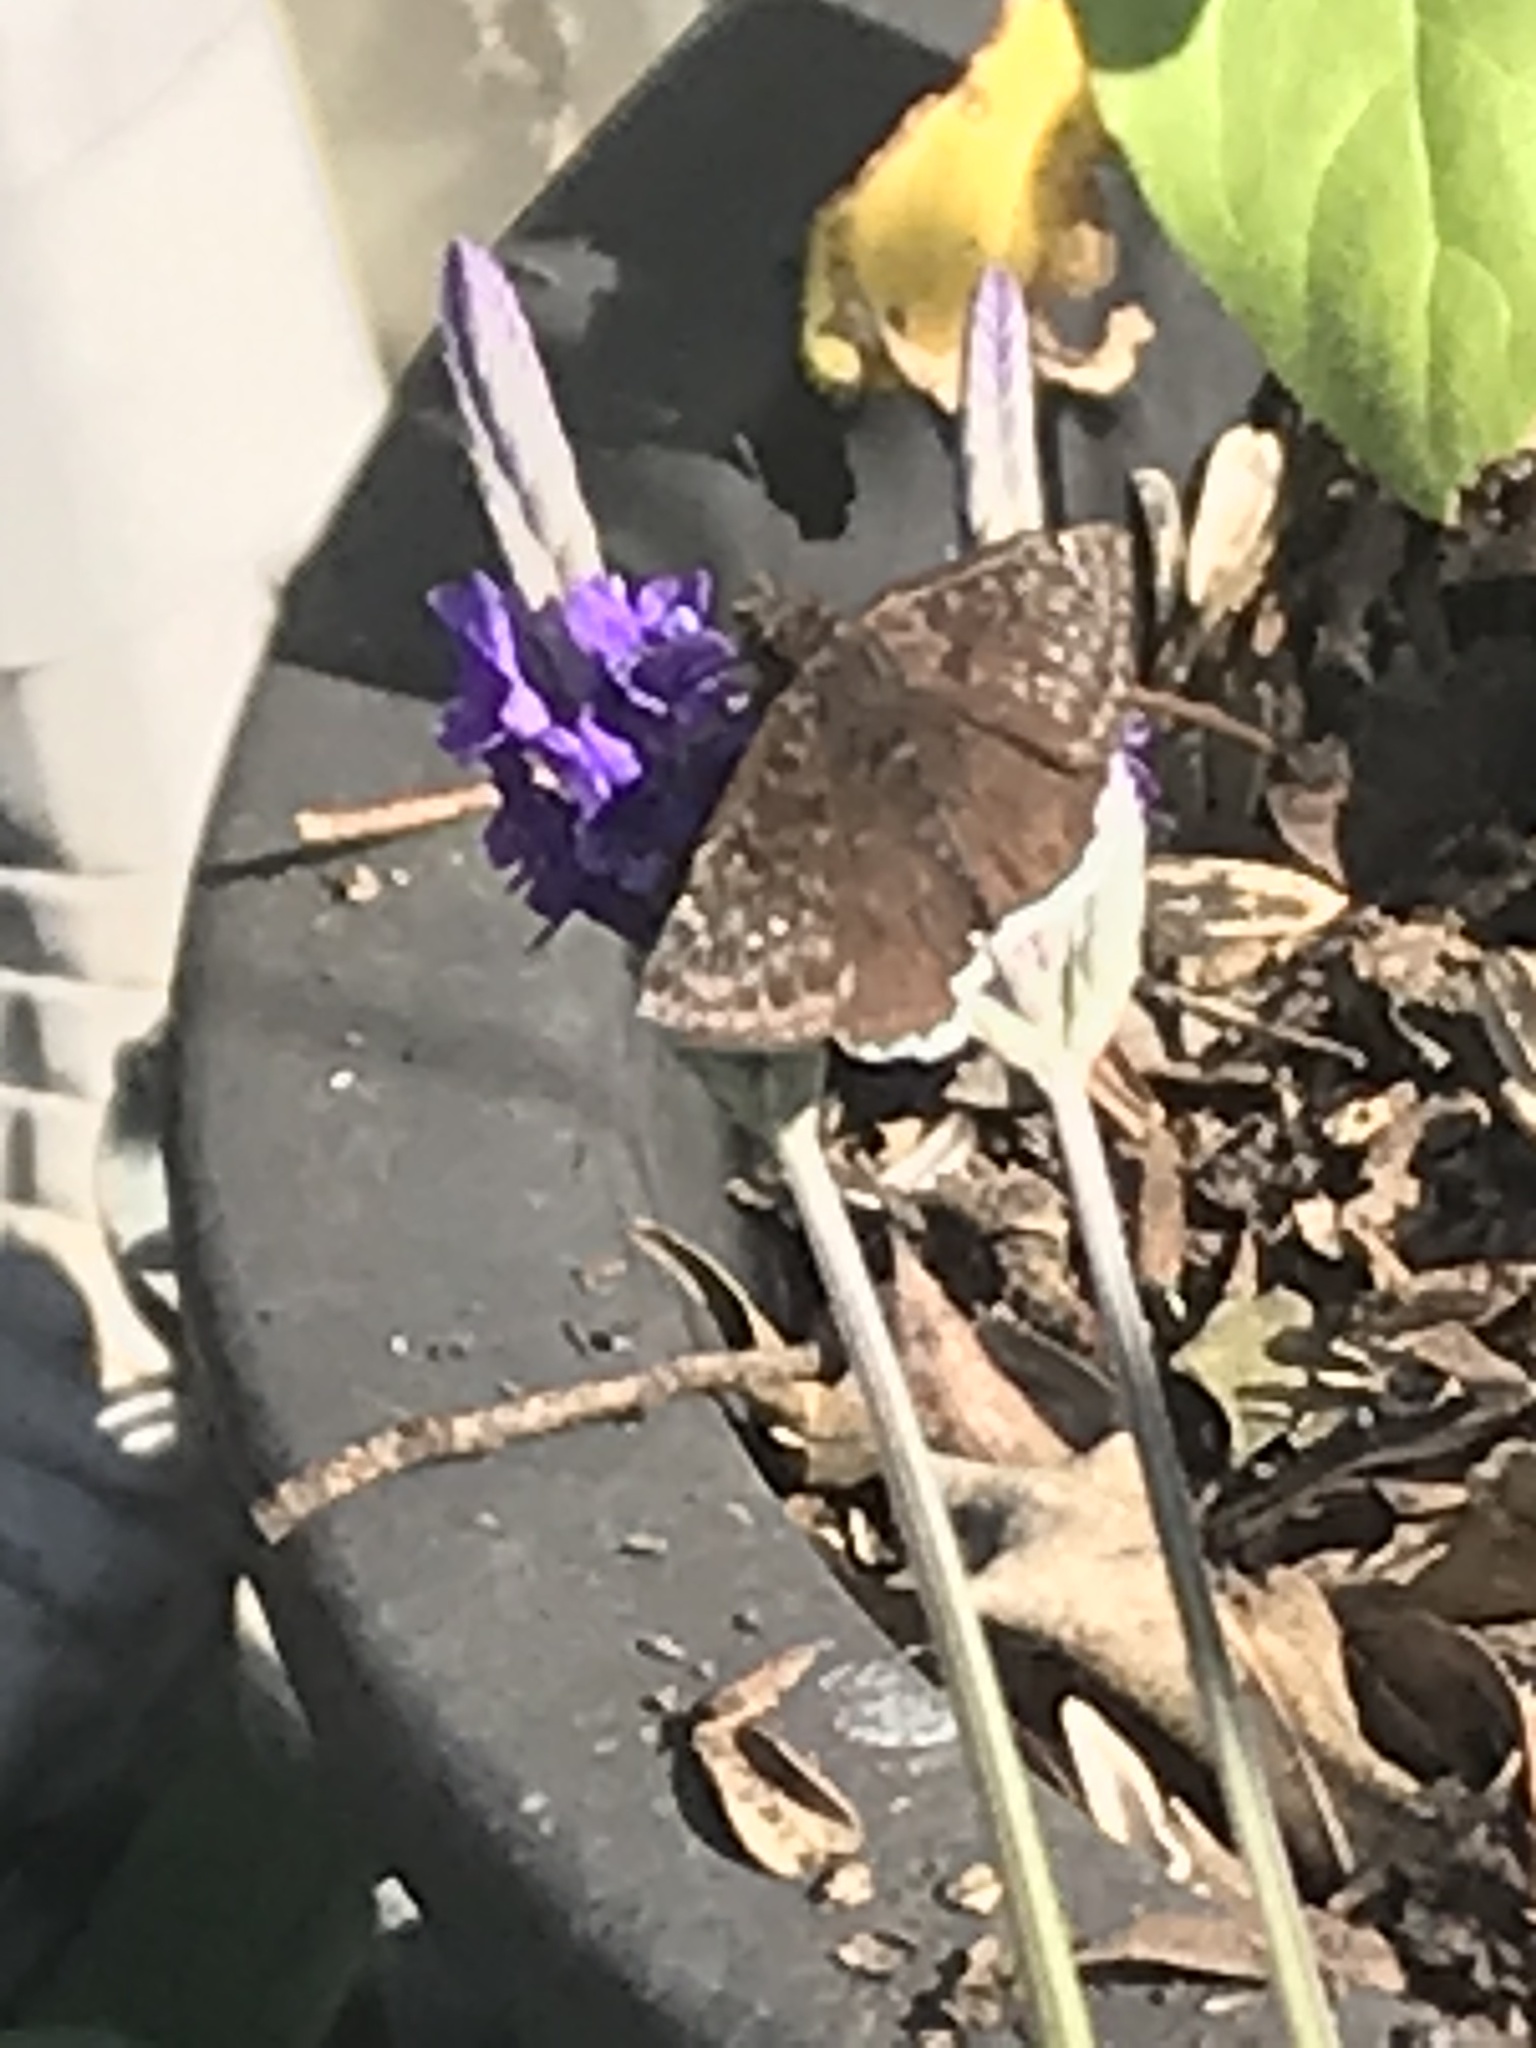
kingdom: Animalia
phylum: Arthropoda
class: Insecta
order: Lepidoptera
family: Hesperiidae
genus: Erynnis
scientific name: Erynnis tristis
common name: Mournful duskywing
